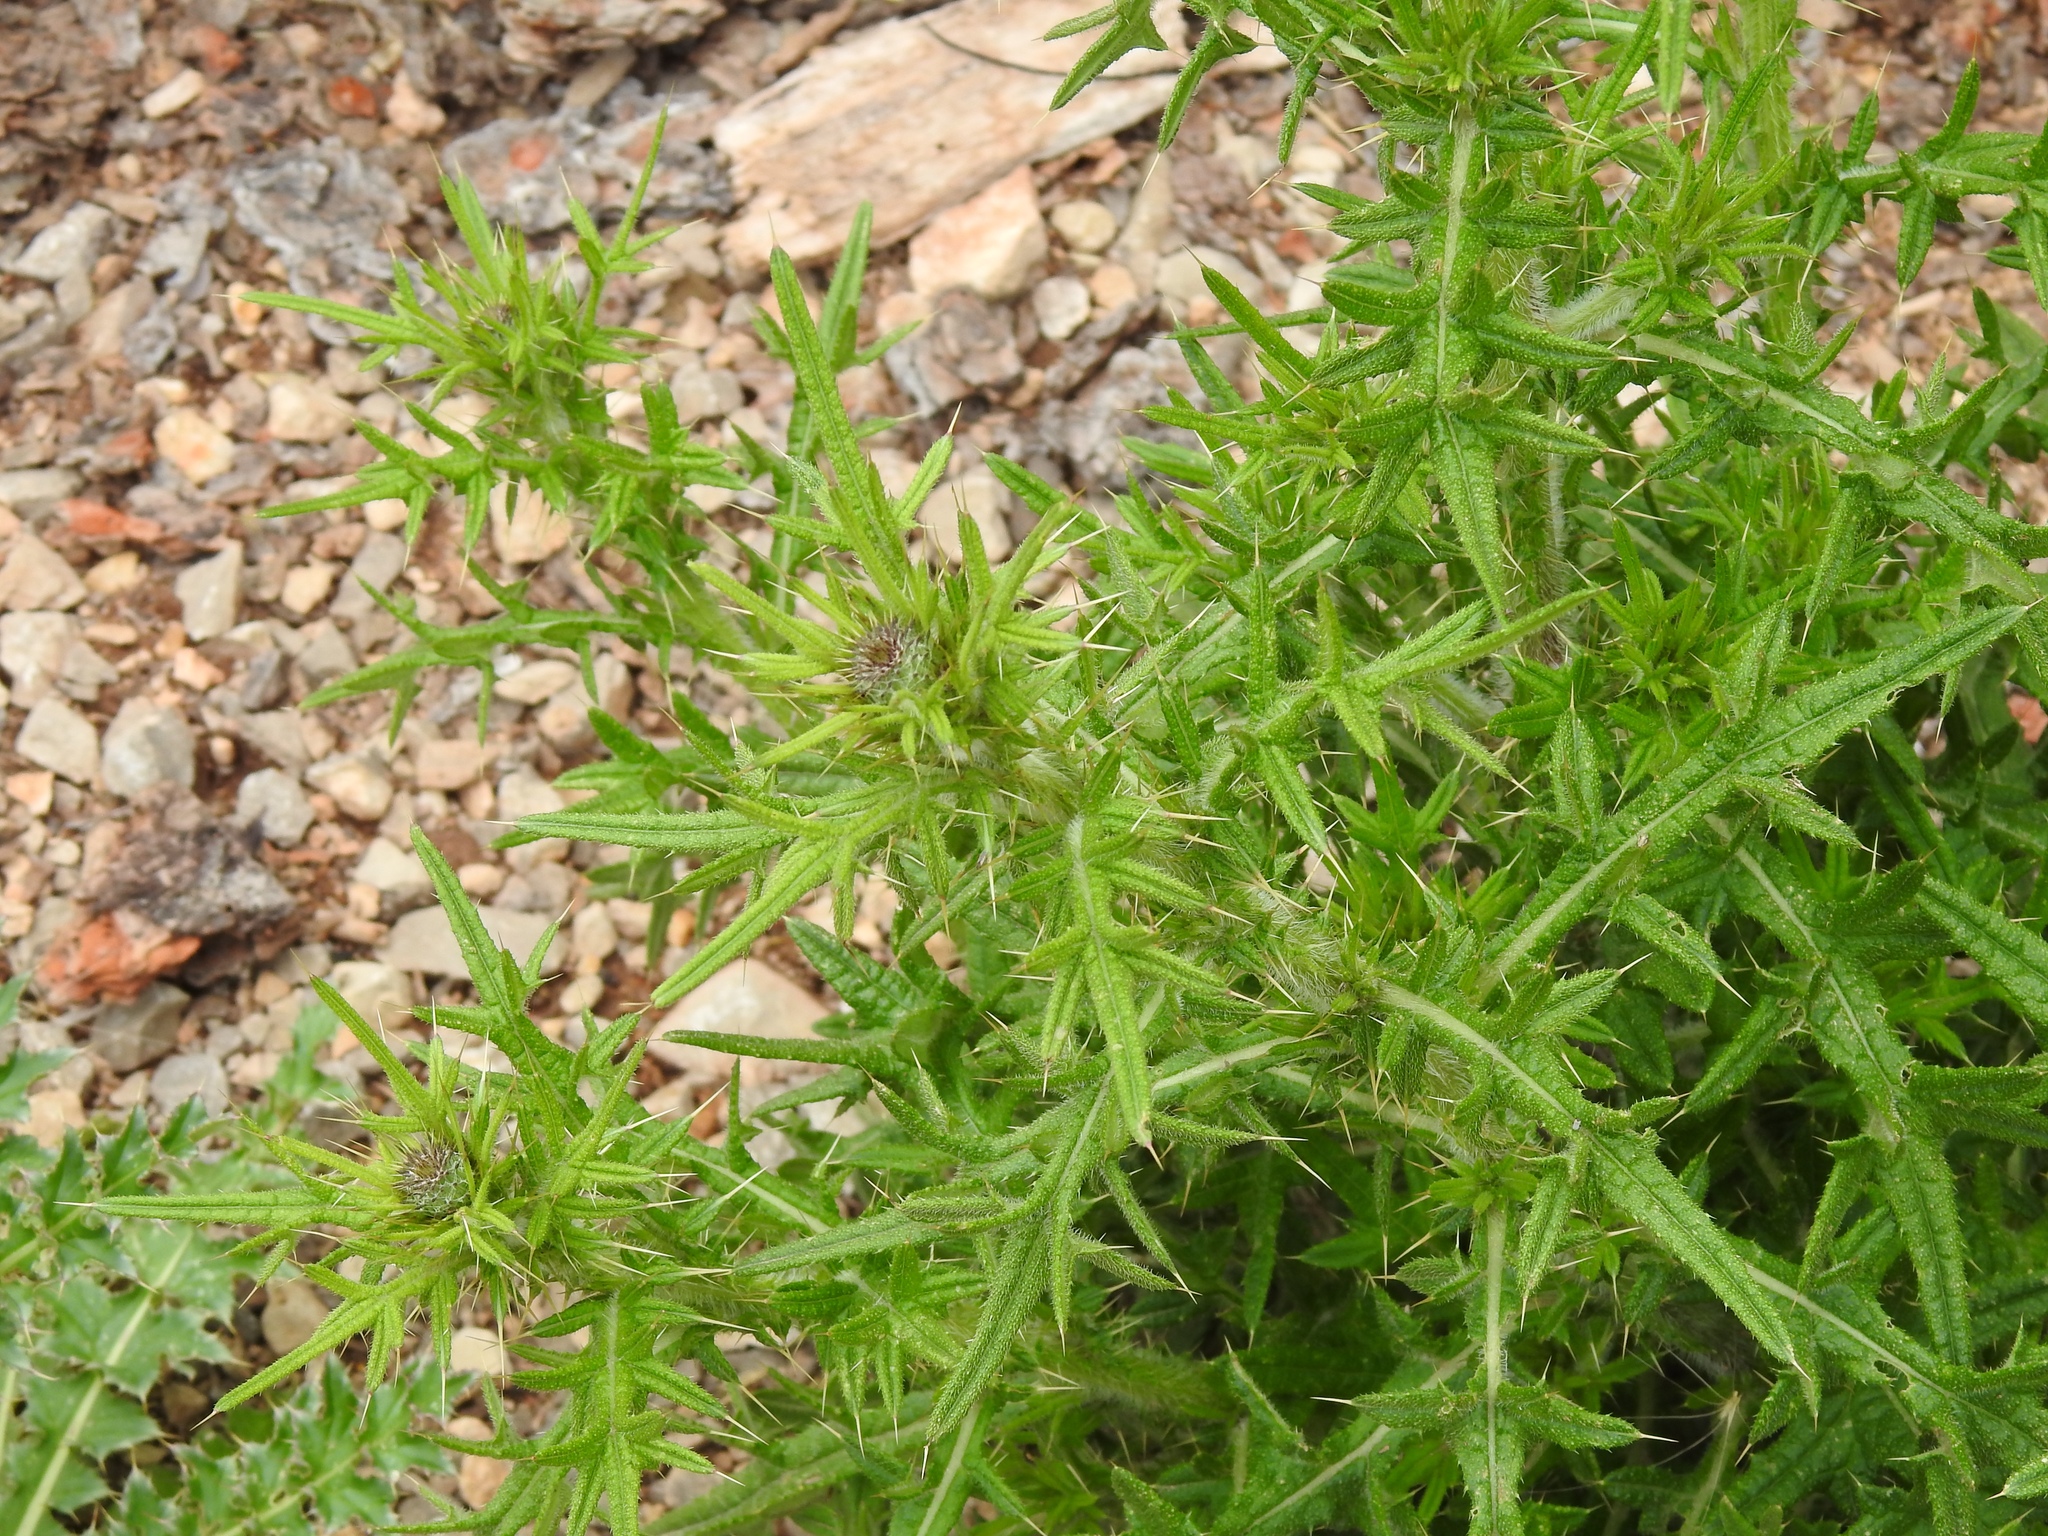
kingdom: Plantae
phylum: Tracheophyta
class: Magnoliopsida
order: Asterales
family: Asteraceae
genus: Cirsium
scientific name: Cirsium vulgare
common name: Bull thistle
